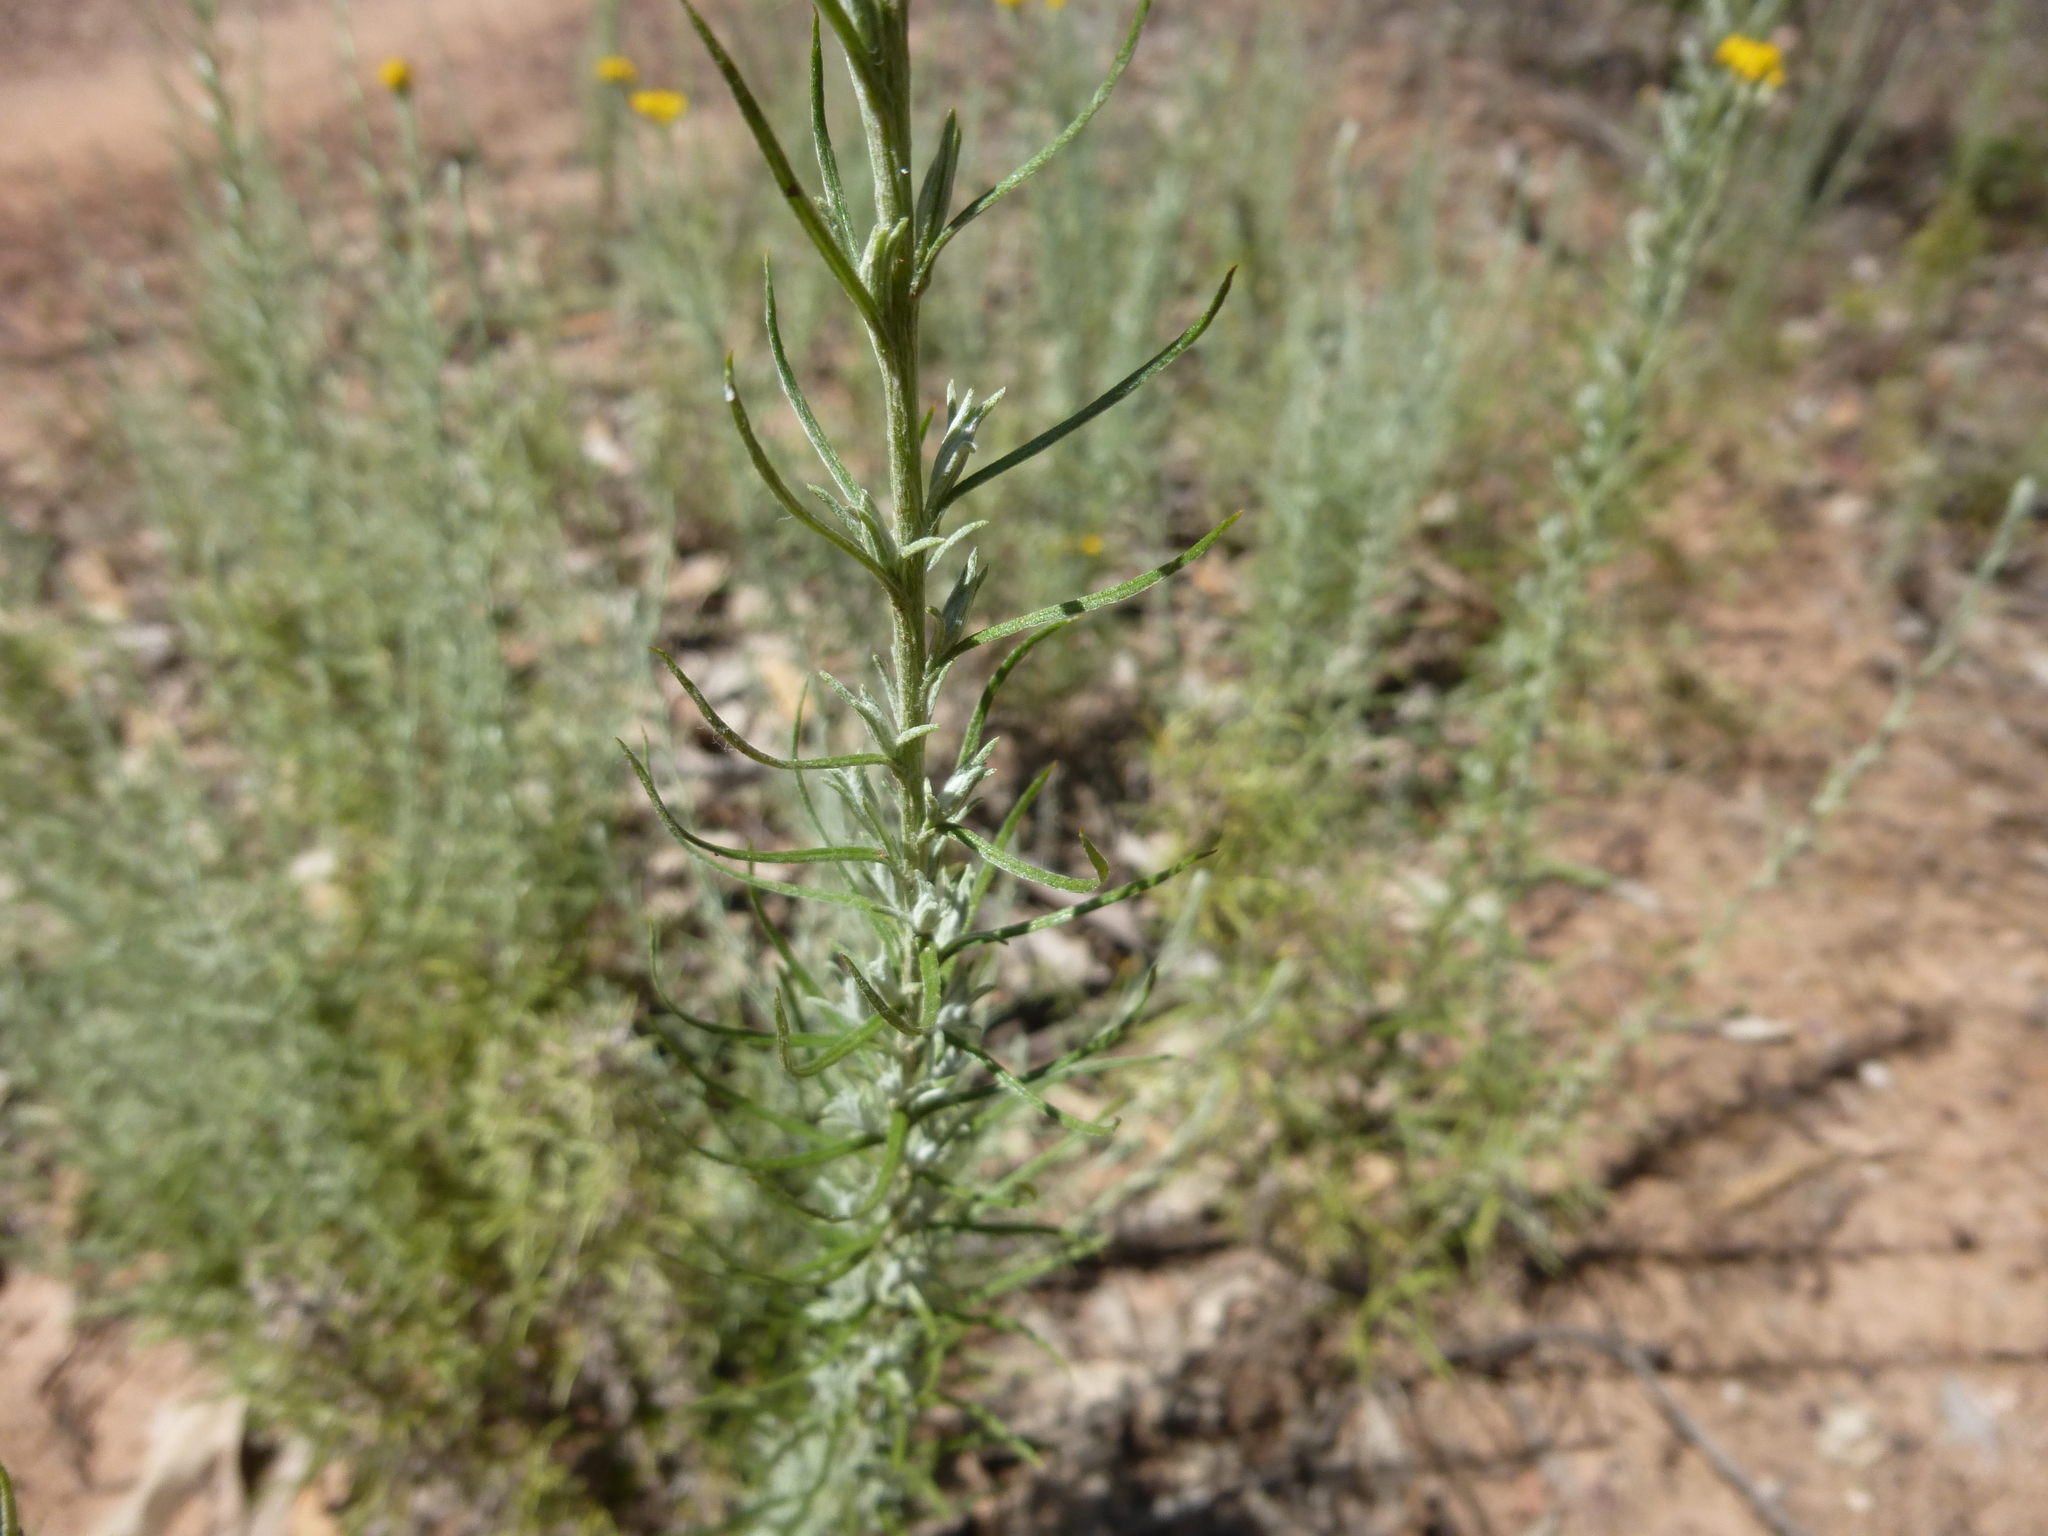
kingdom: Plantae
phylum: Tracheophyta
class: Magnoliopsida
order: Asterales
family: Asteraceae
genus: Chrysocephalum
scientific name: Chrysocephalum semipapposum
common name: Clustered everlasting
